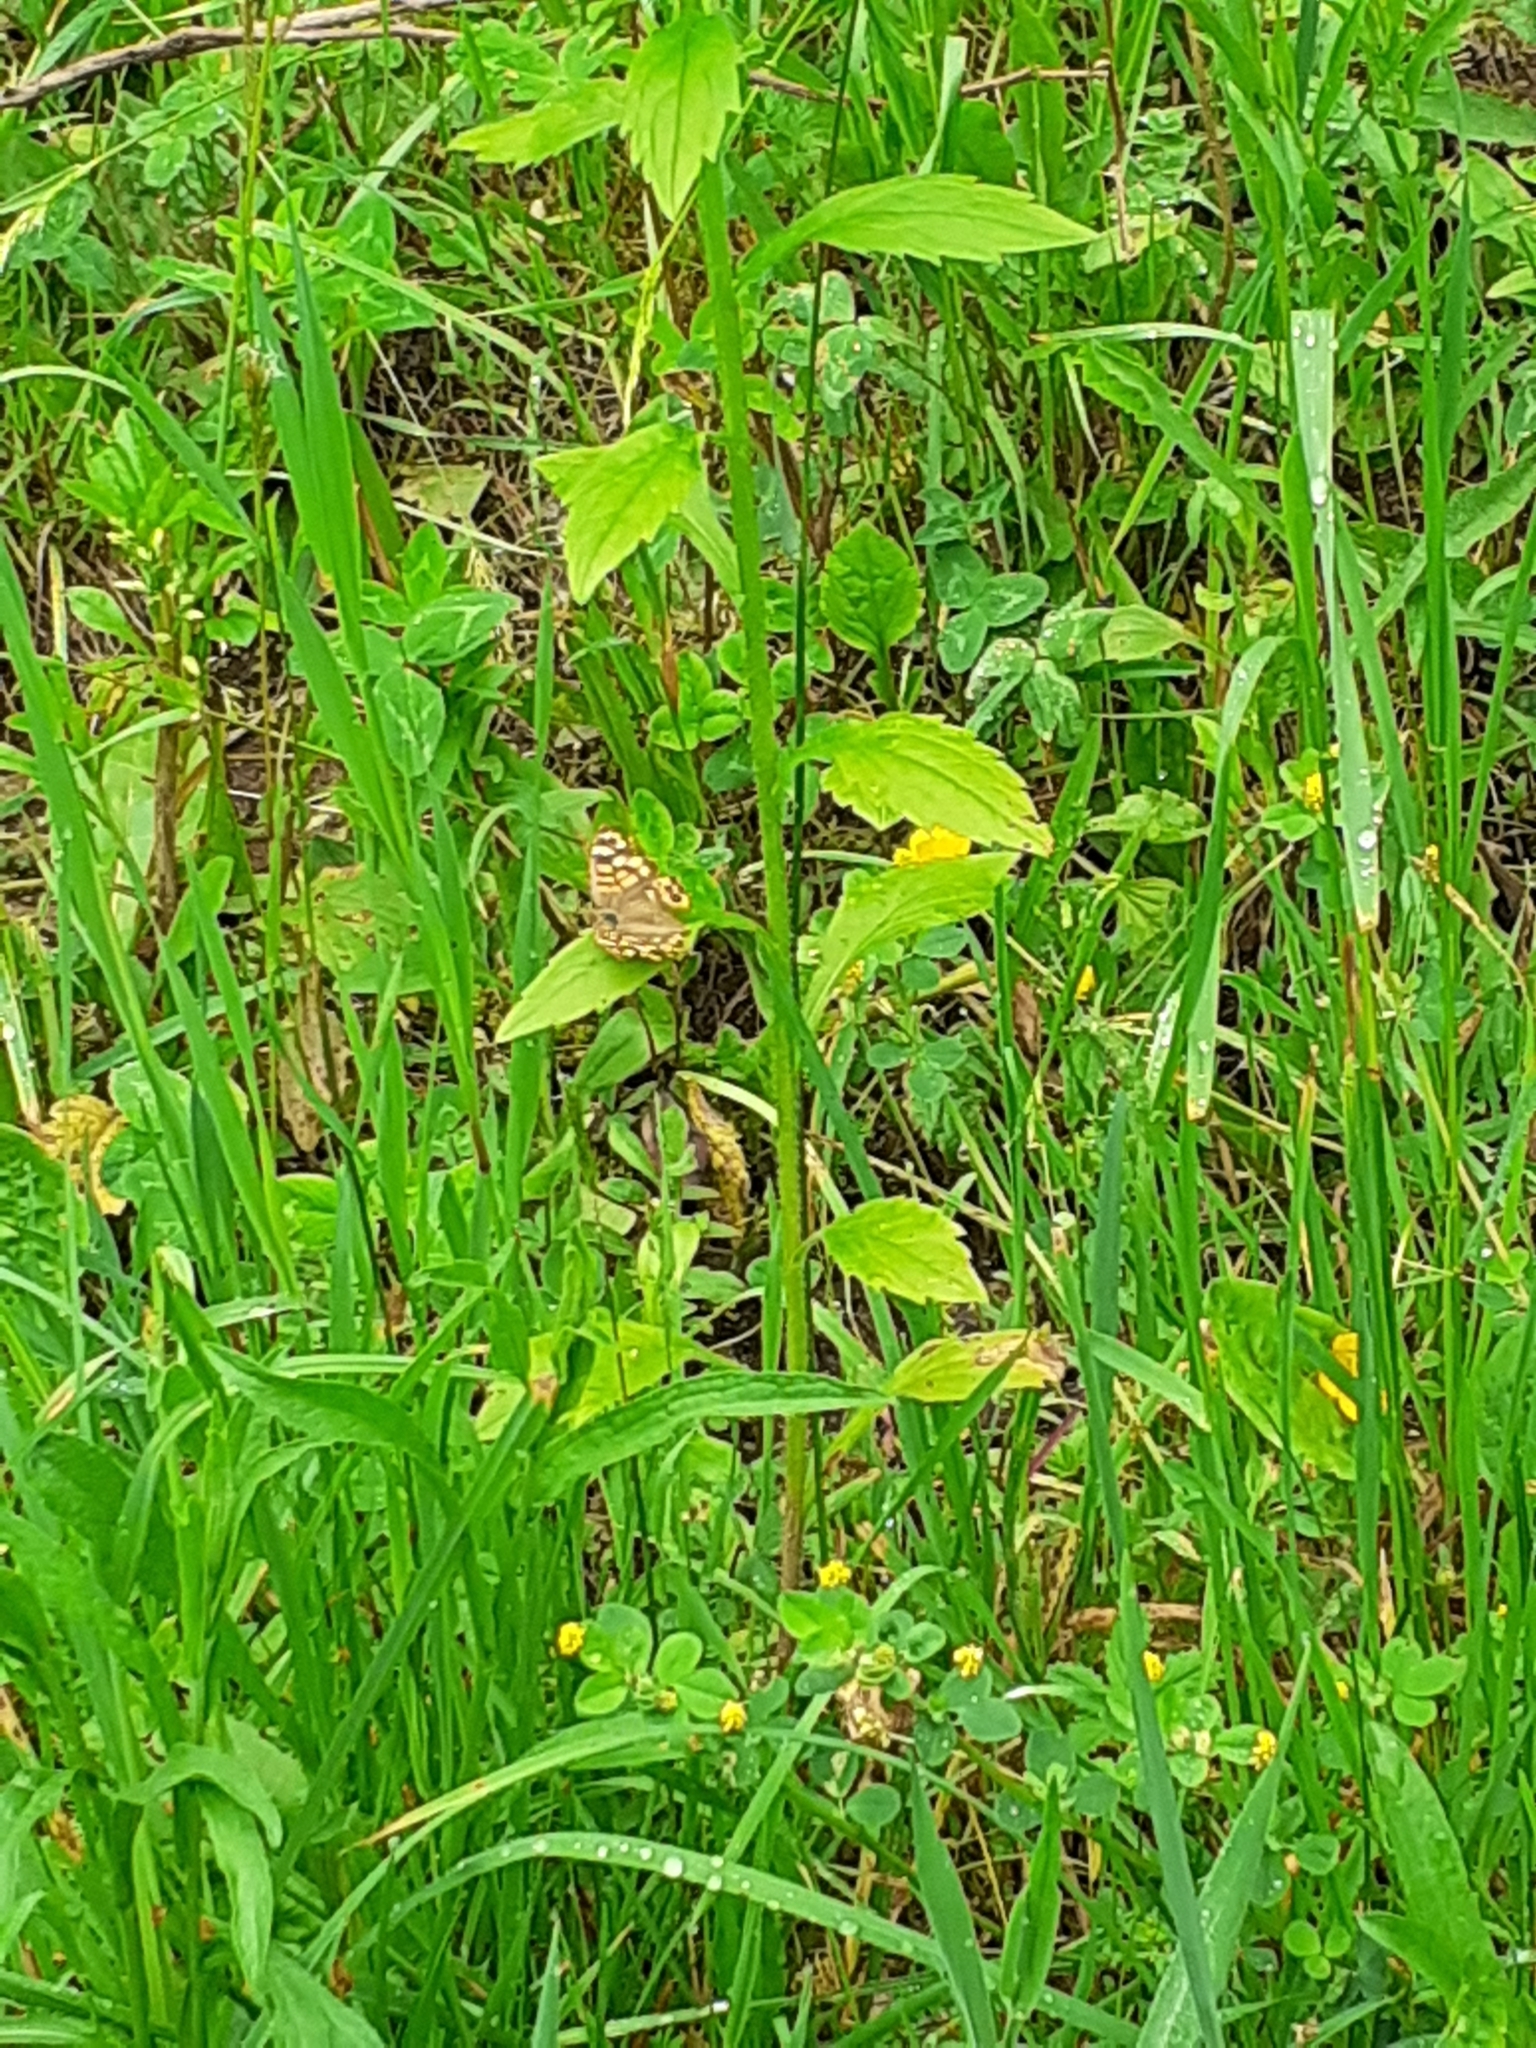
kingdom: Animalia
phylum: Arthropoda
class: Insecta
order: Lepidoptera
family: Nymphalidae
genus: Pararge
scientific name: Pararge aegeria
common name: Speckled wood
